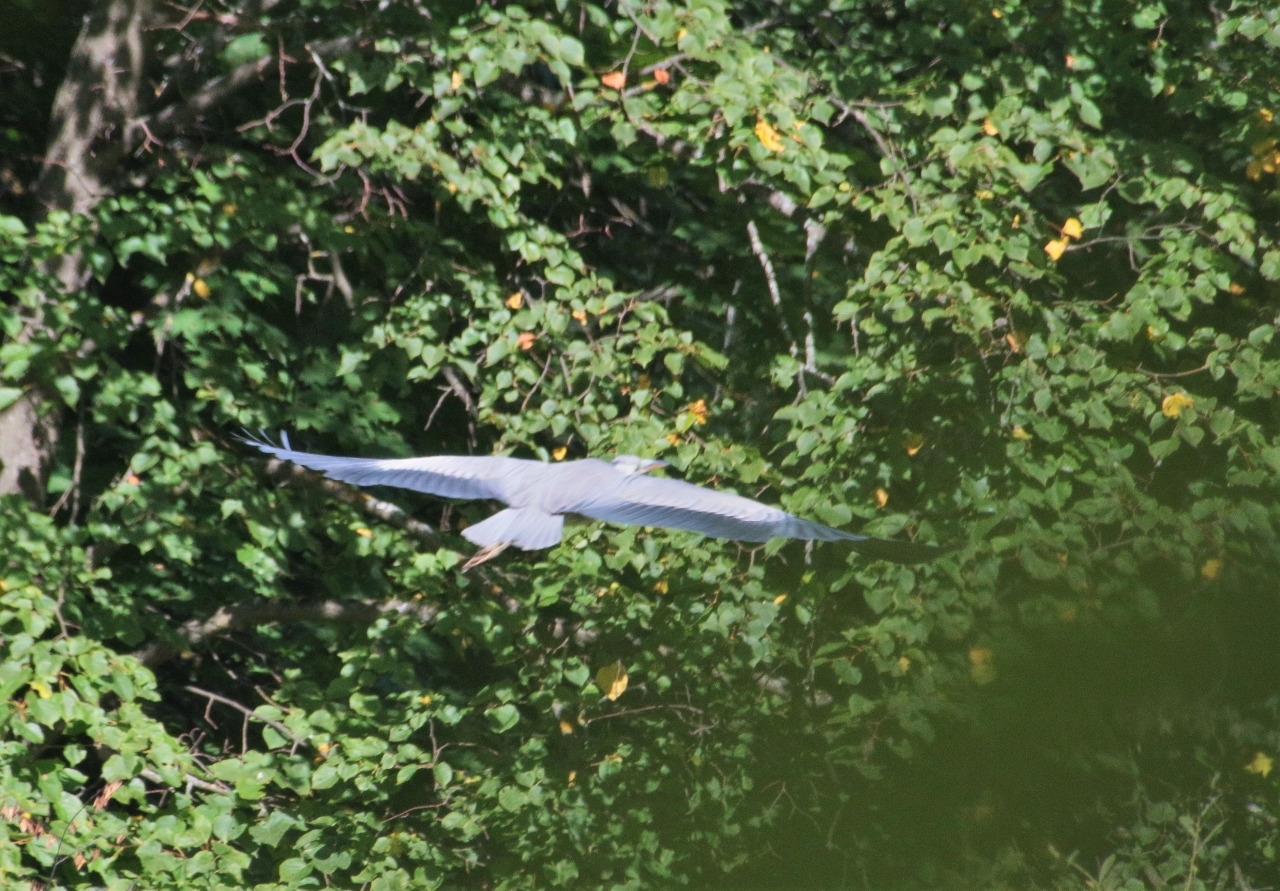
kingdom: Animalia
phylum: Chordata
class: Aves
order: Pelecaniformes
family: Ardeidae
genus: Ardea
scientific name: Ardea cinerea
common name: Grey heron
